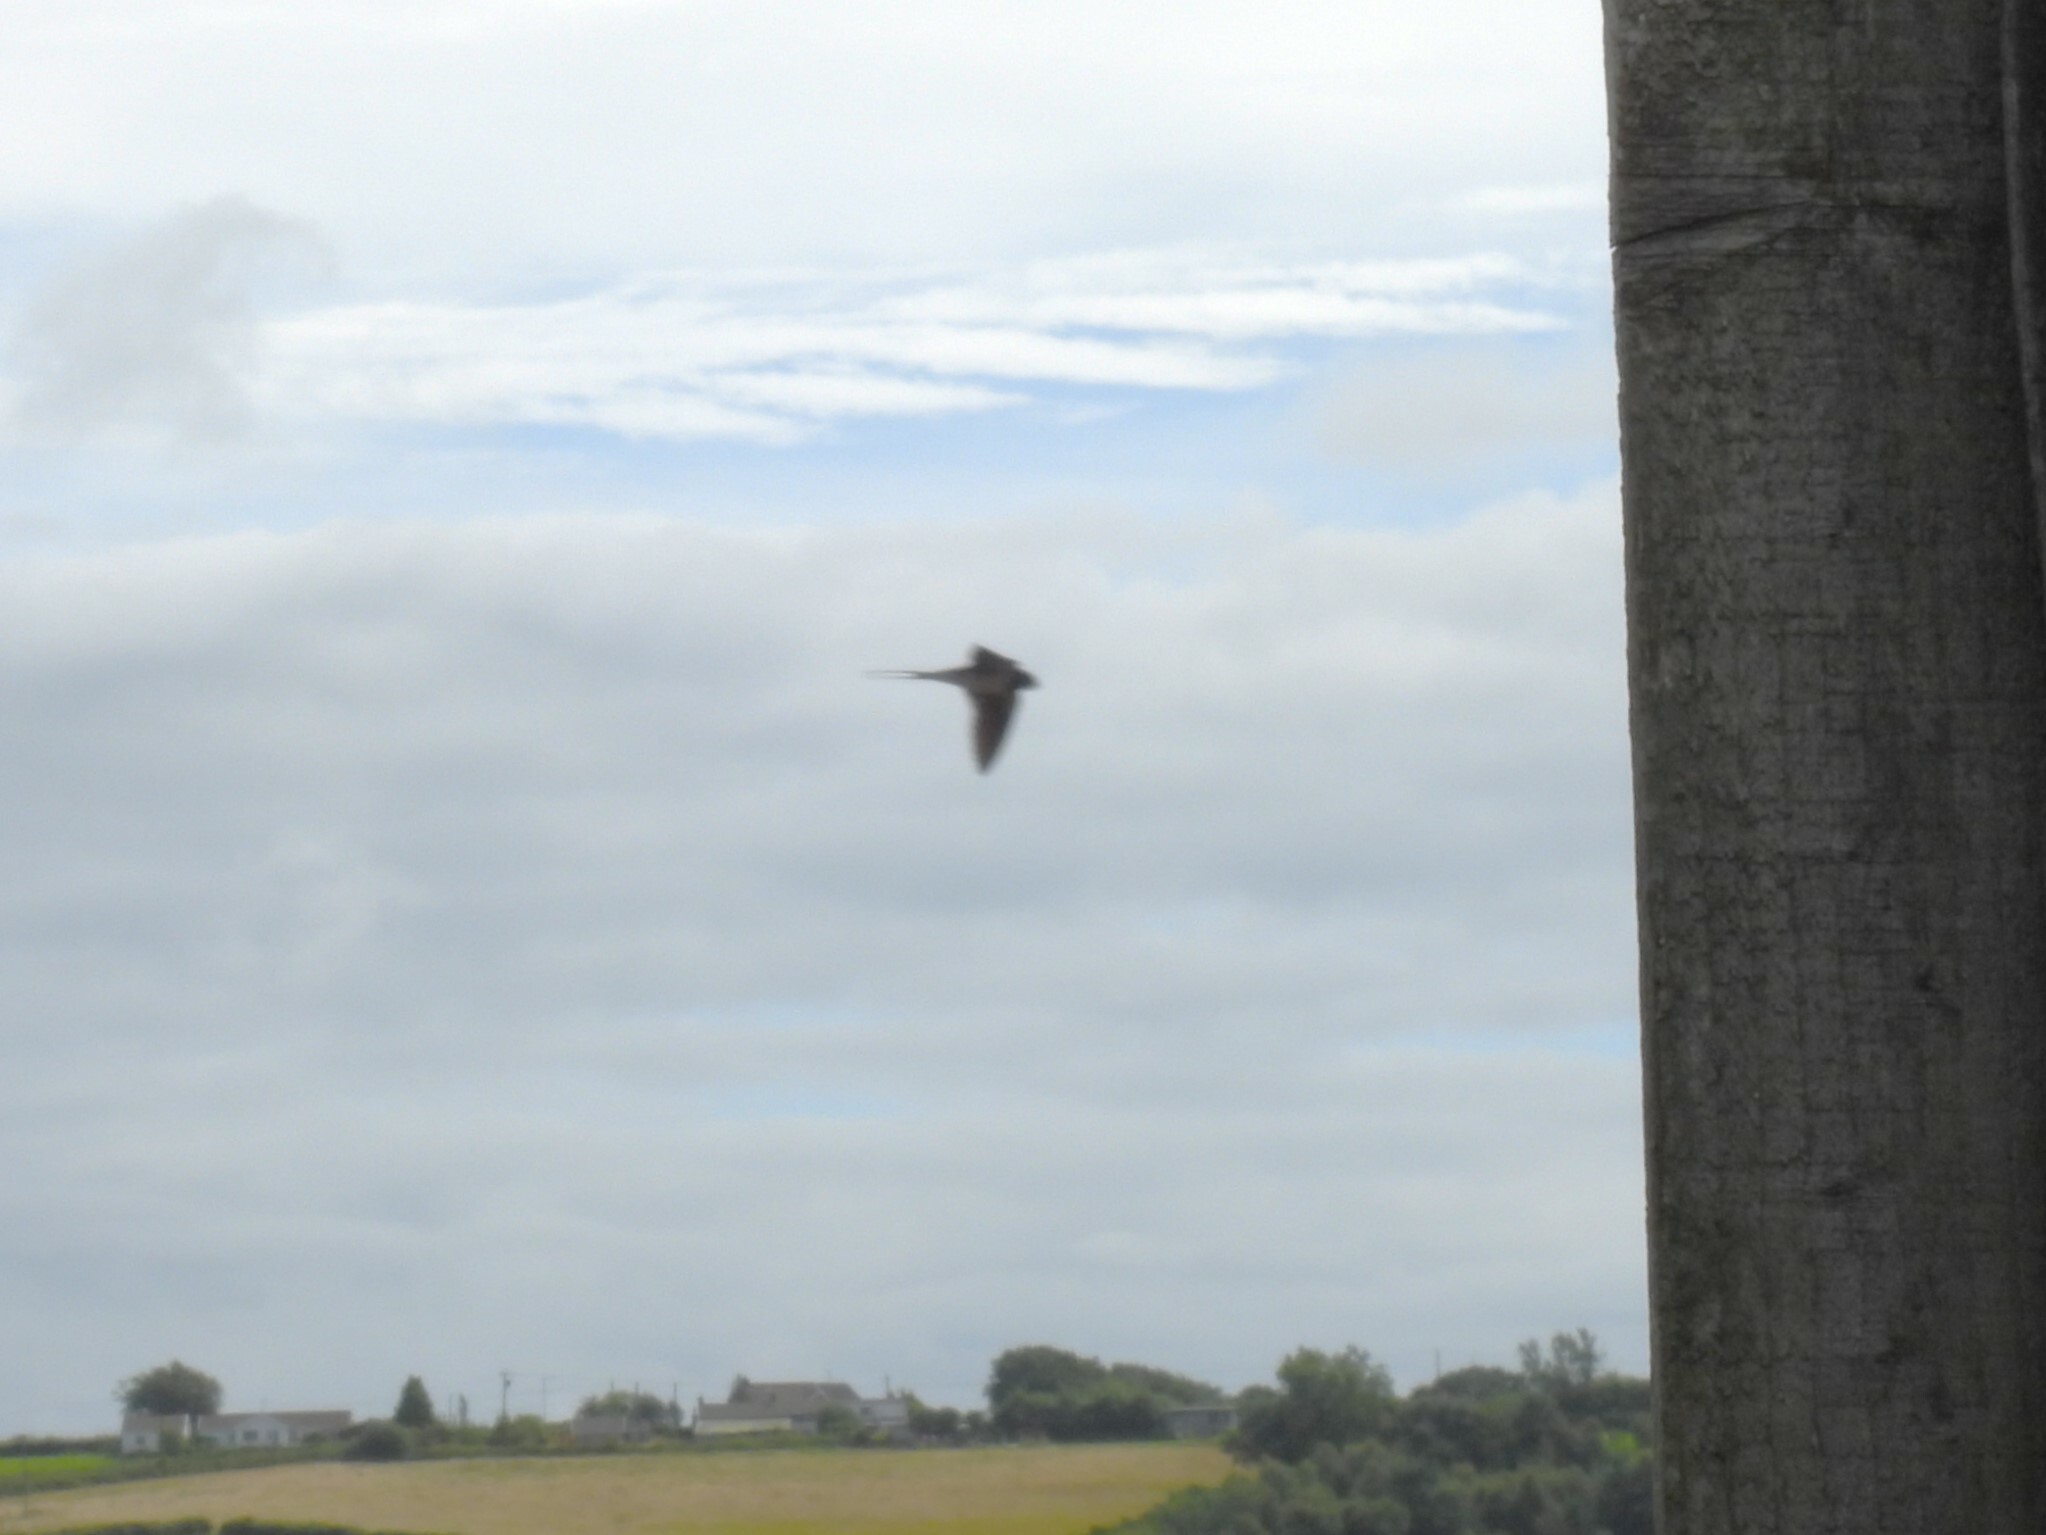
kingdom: Animalia
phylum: Chordata
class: Aves
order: Passeriformes
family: Hirundinidae
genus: Hirundo
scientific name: Hirundo rustica
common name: Barn swallow
